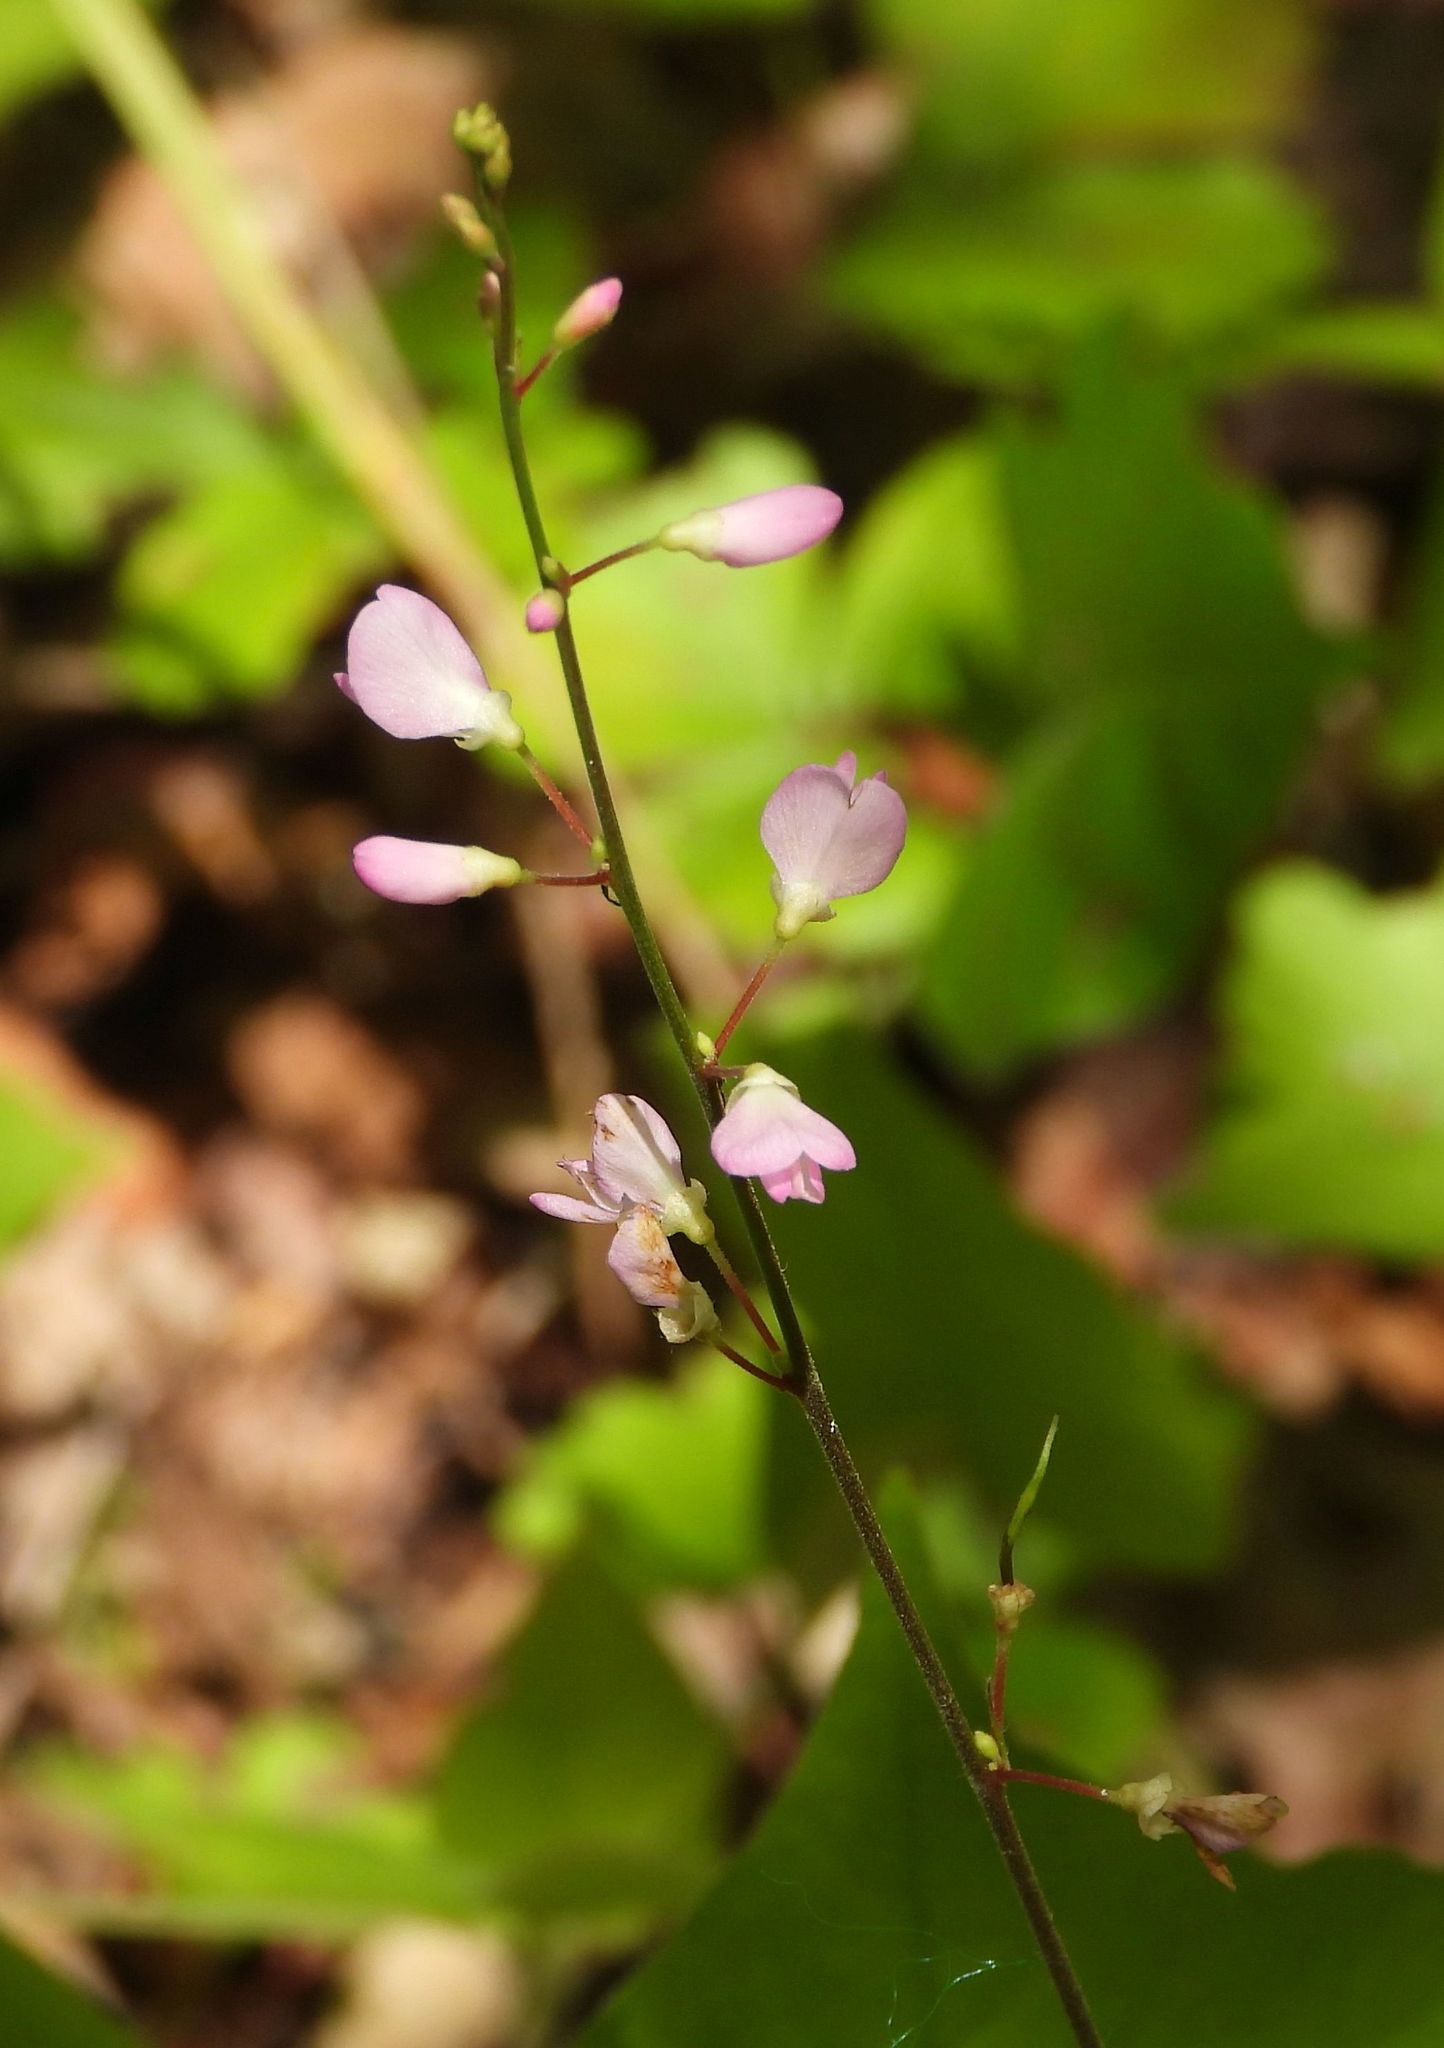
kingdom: Plantae
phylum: Tracheophyta
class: Magnoliopsida
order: Fabales
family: Fabaceae
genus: Hylodesmum
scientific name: Hylodesmum glutinosum
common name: Clustered-leaved tick-trefoil
